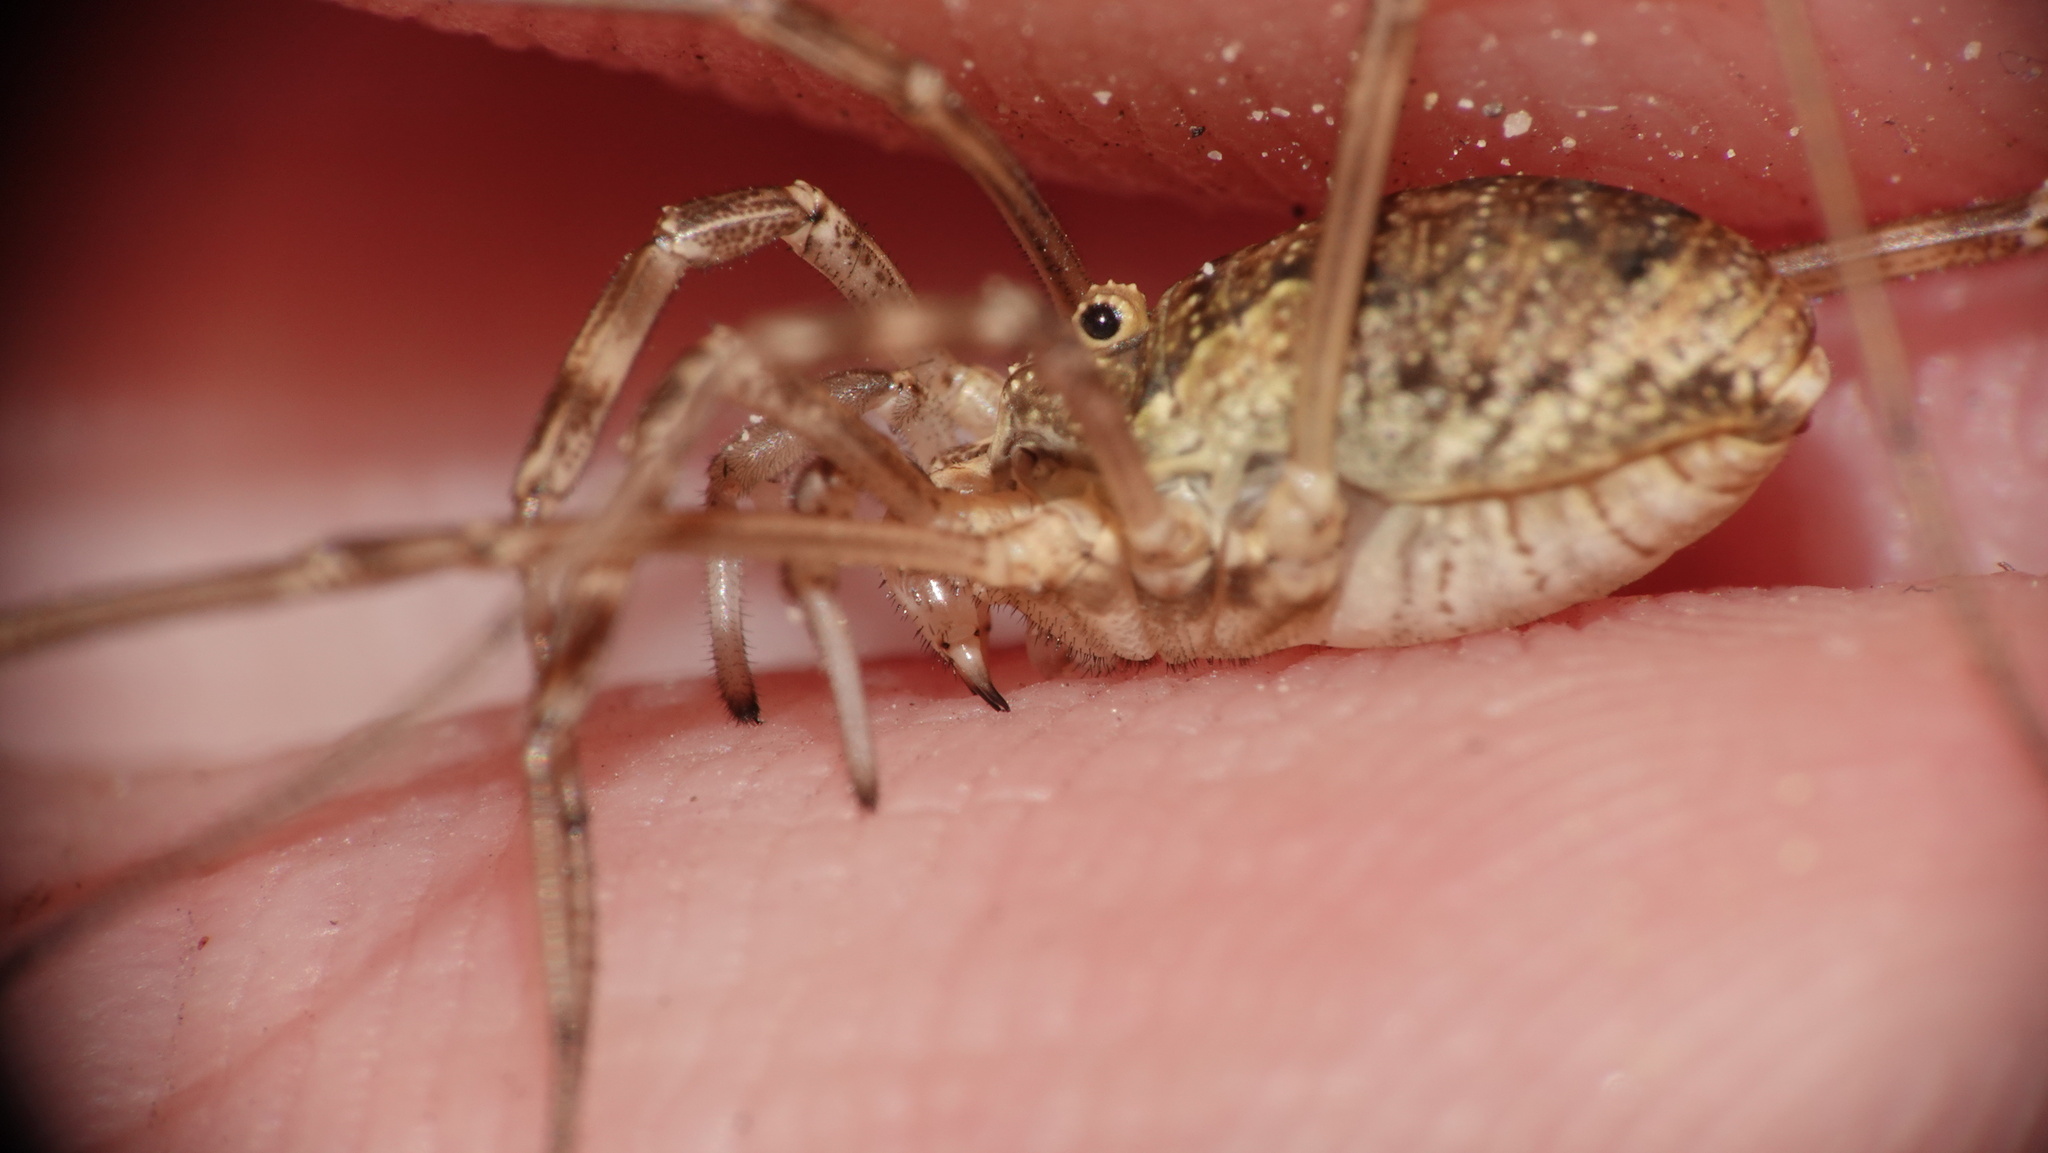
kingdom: Animalia
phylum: Arthropoda
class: Arachnida
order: Opiliones
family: Phalangiidae
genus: Mitopus
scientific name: Mitopus morio
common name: Saddleback harvestman
